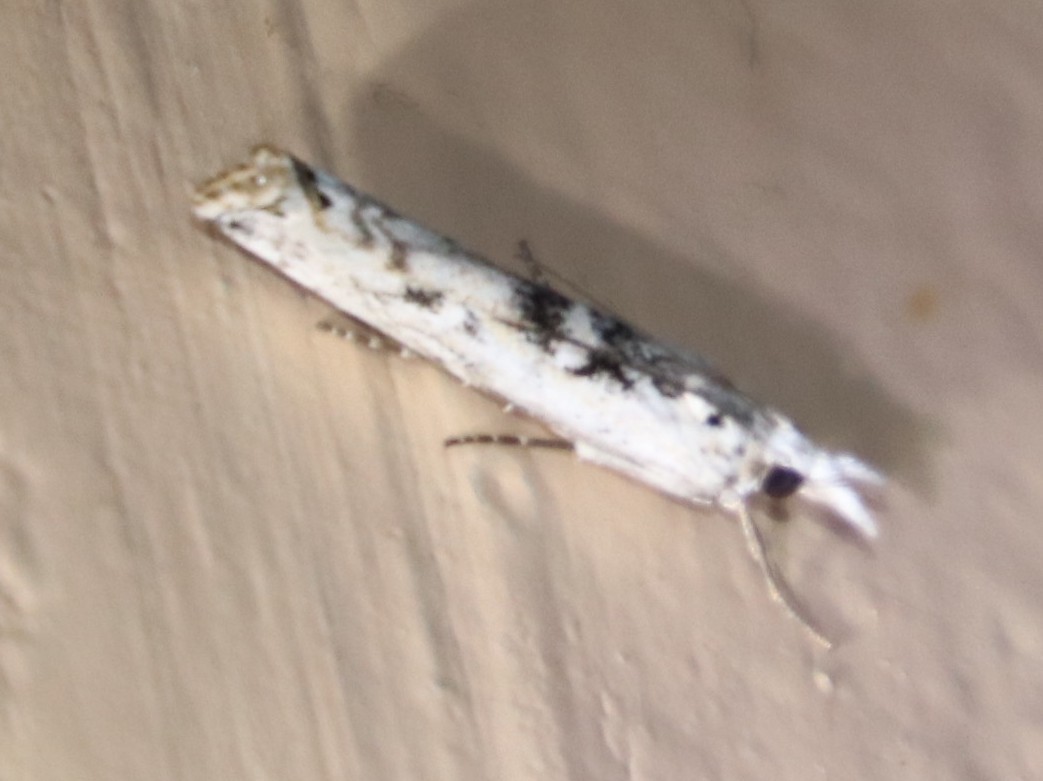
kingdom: Animalia
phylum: Arthropoda
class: Insecta
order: Lepidoptera
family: Crambidae
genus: Crambus
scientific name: Crambus sparsellus
